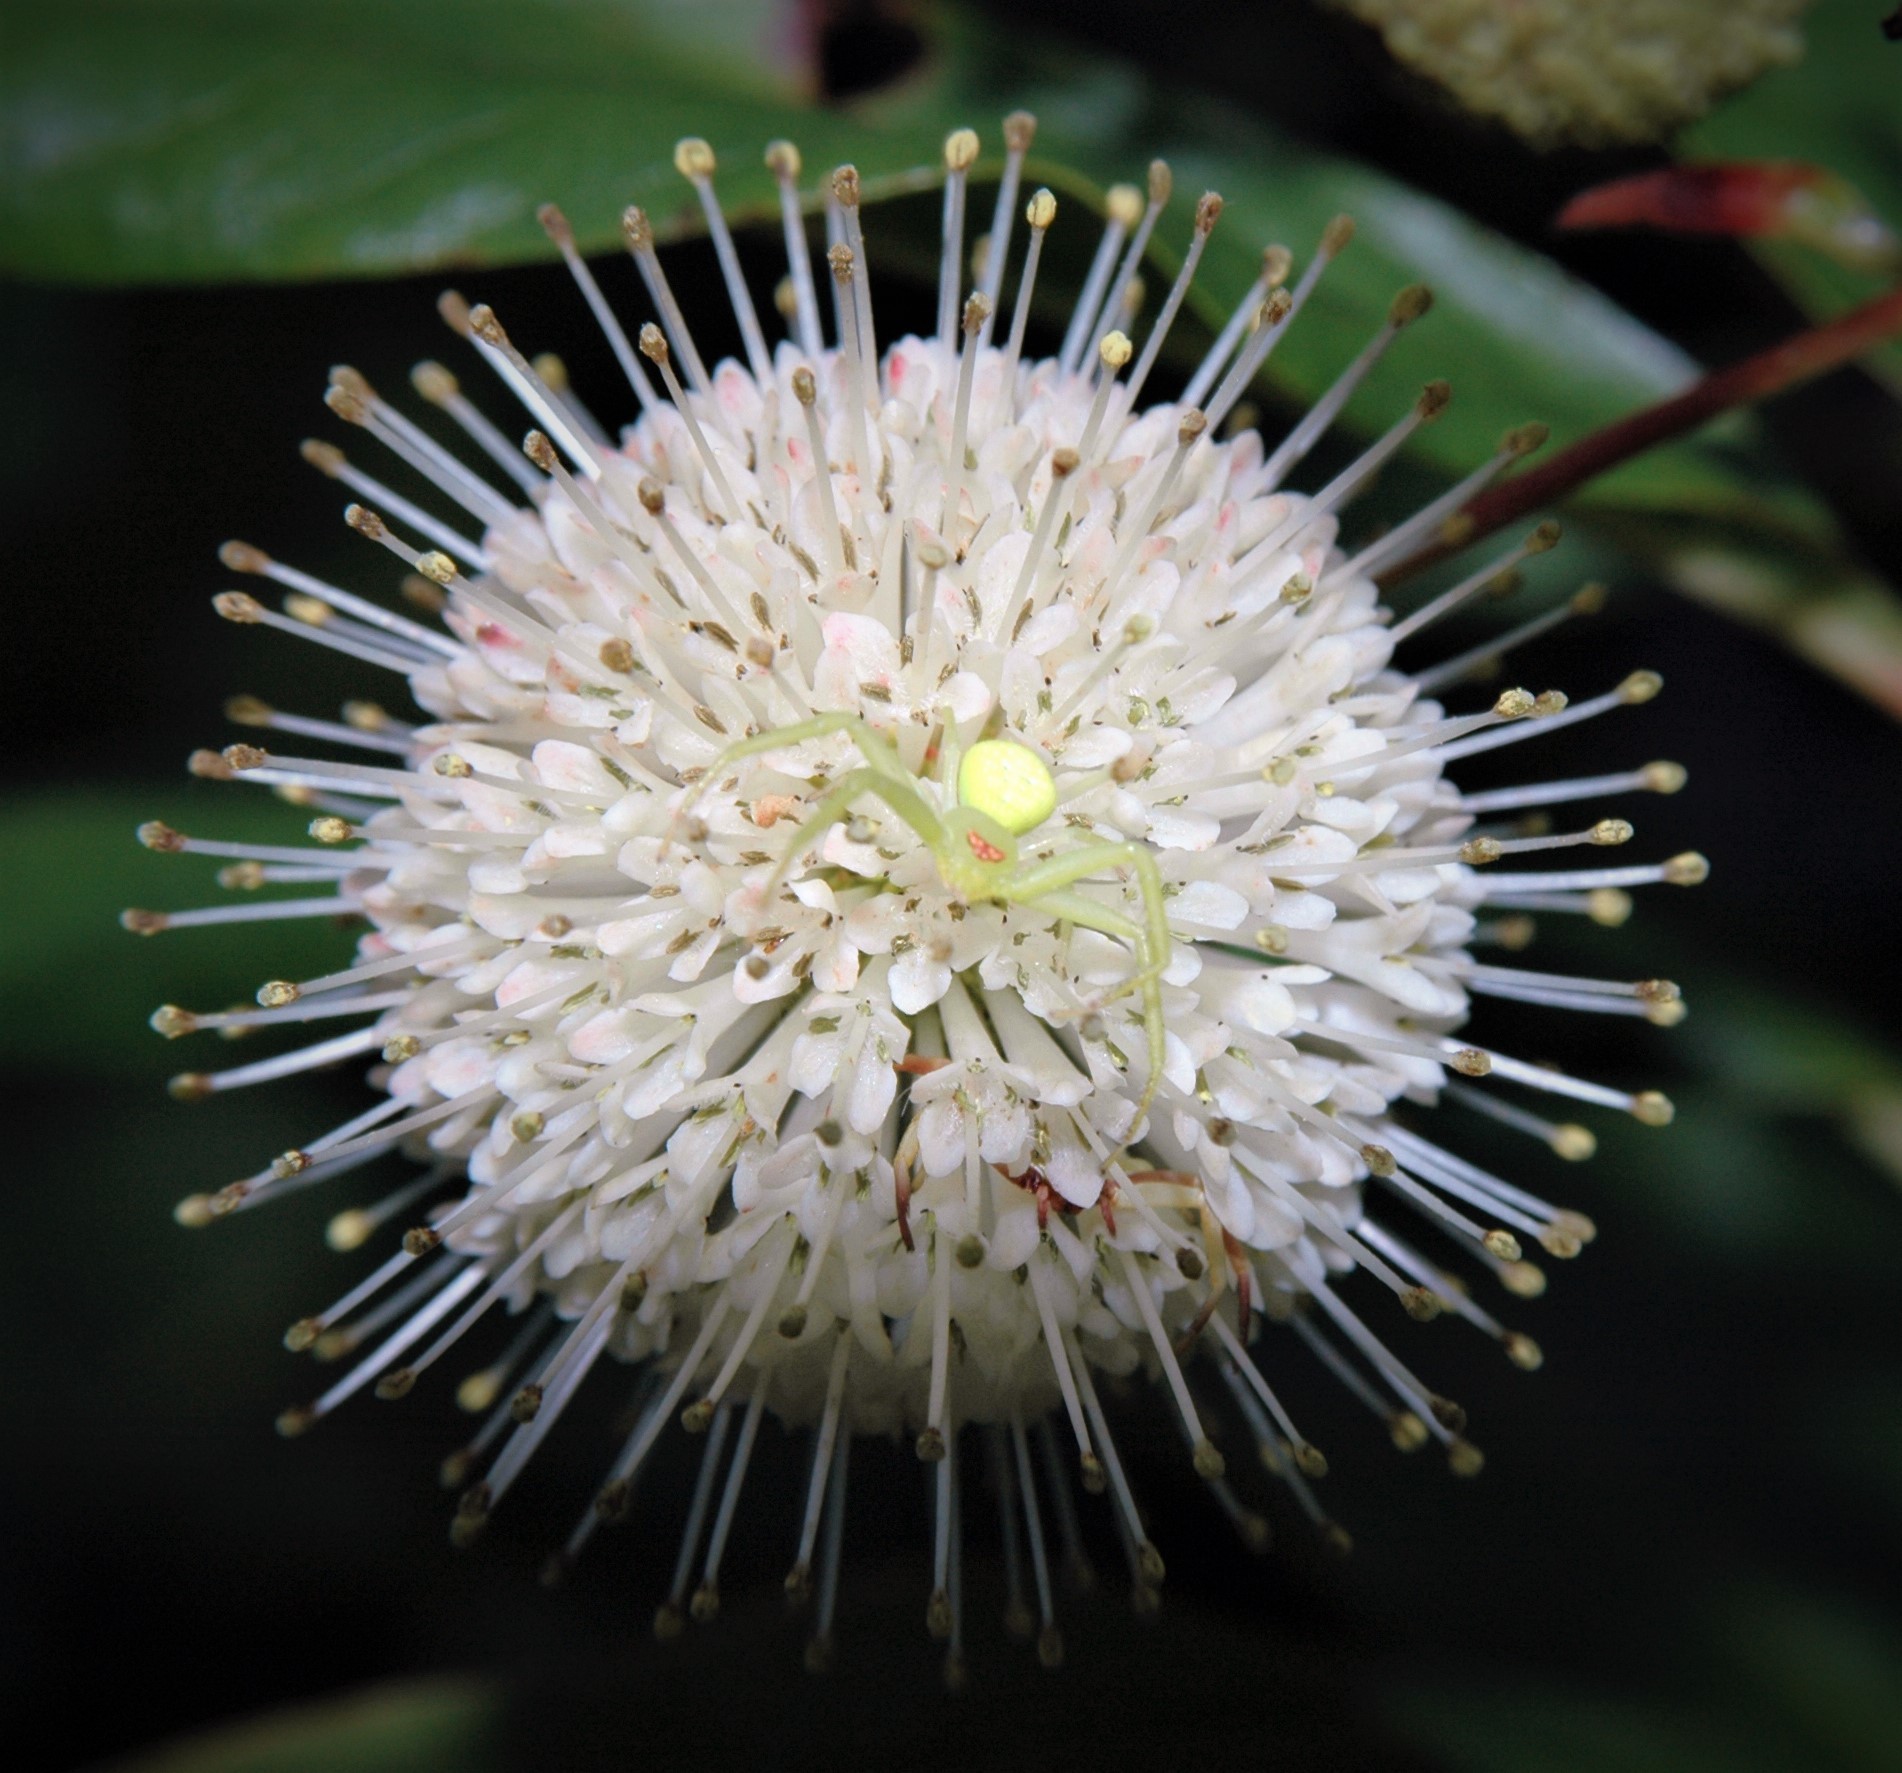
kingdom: Plantae
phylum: Tracheophyta
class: Magnoliopsida
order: Gentianales
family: Rubiaceae
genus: Cephalanthus
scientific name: Cephalanthus occidentalis
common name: Button-willow
